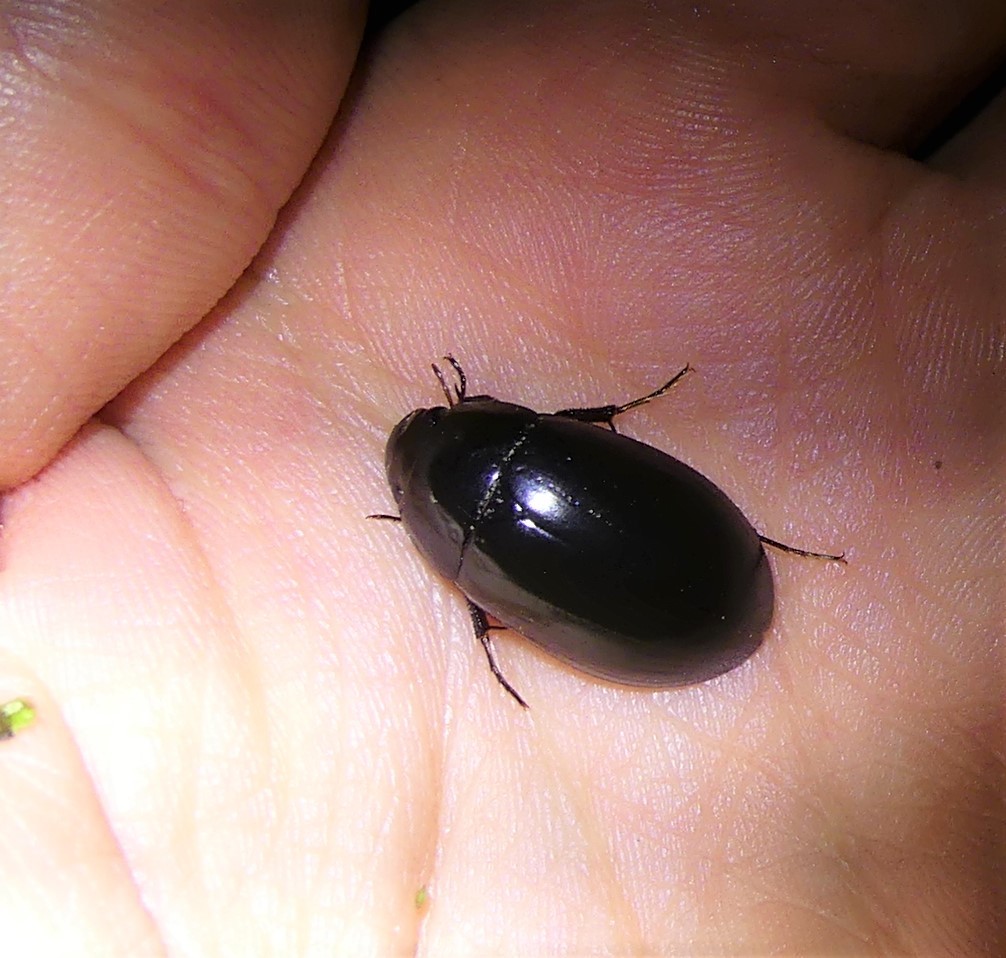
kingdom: Animalia
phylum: Arthropoda
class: Insecta
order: Coleoptera
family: Hydrophilidae
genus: Hydrochara
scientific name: Hydrochara caraboides
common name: Lesser silver water beetle
